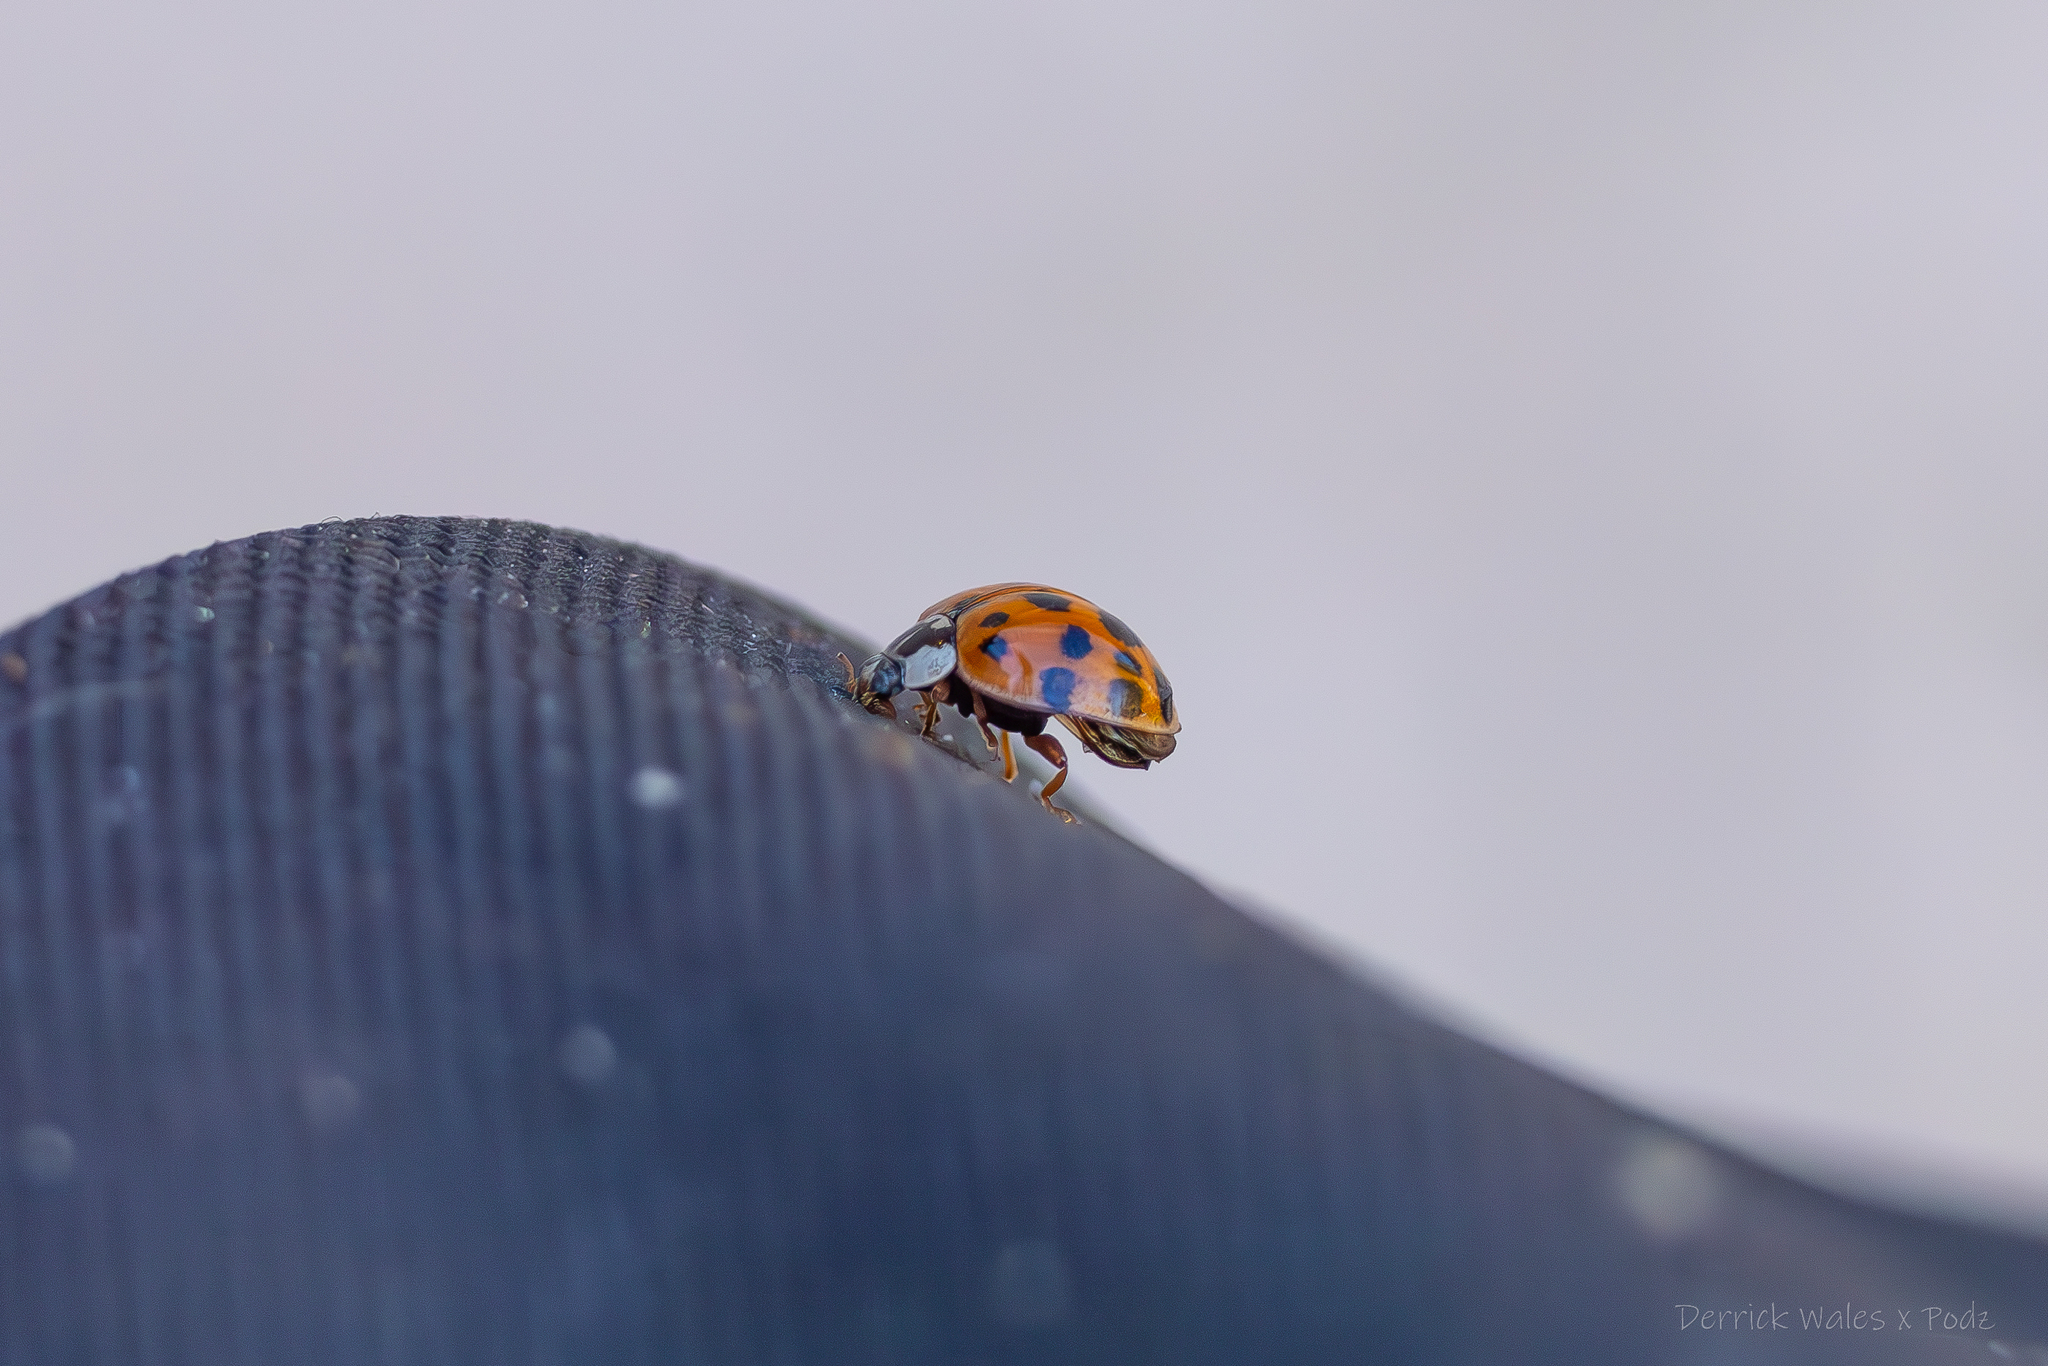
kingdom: Animalia
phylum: Arthropoda
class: Insecta
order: Coleoptera
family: Coccinellidae
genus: Harmonia
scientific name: Harmonia axyridis
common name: Harlequin ladybird
